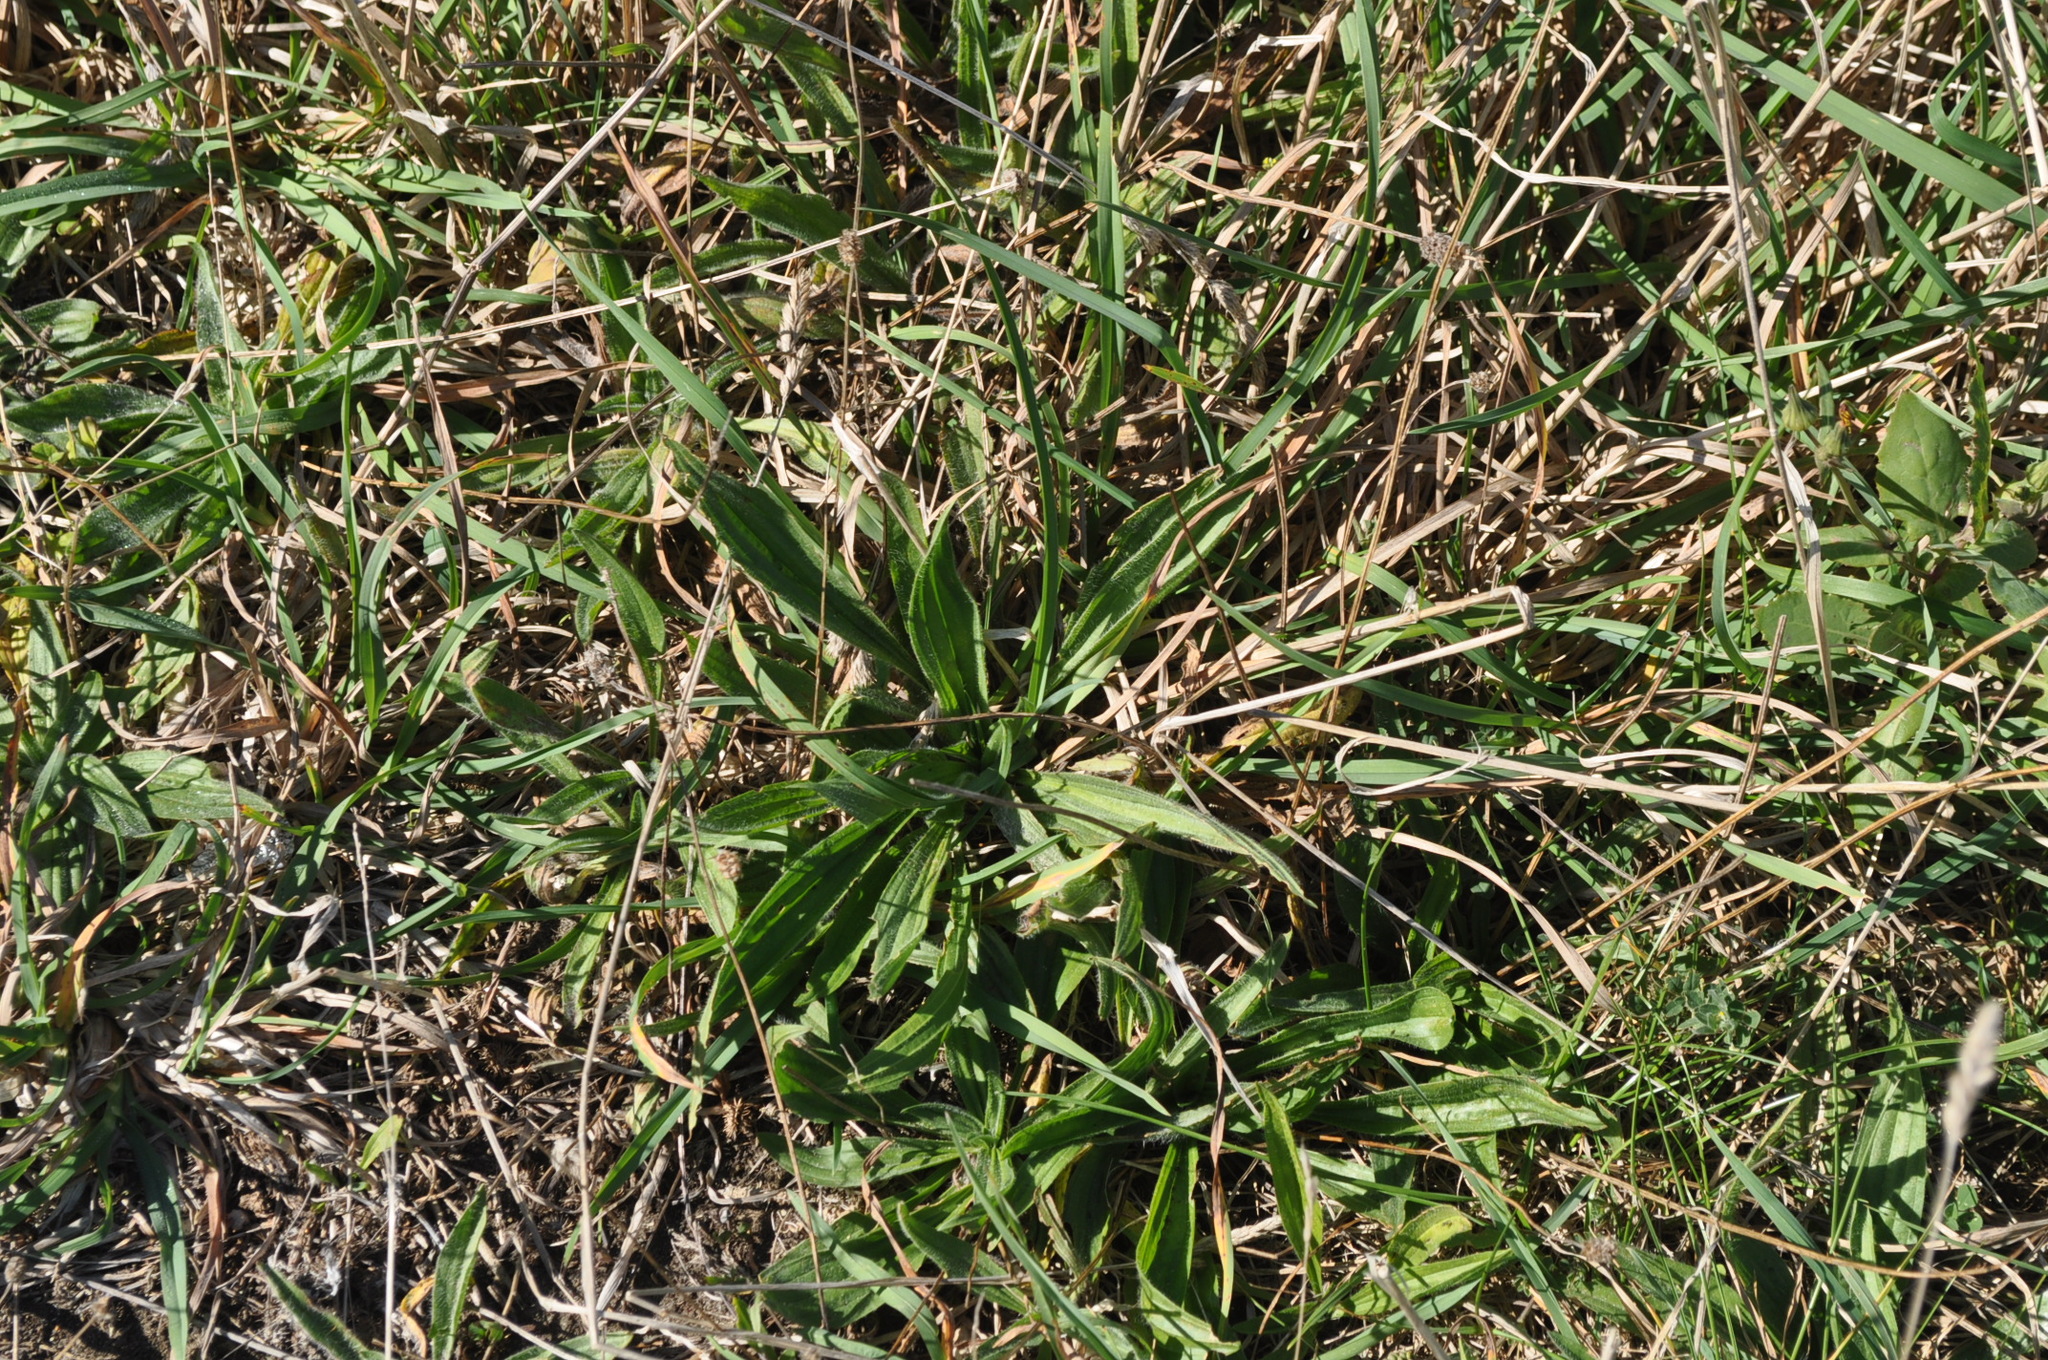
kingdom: Plantae
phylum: Tracheophyta
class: Magnoliopsida
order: Lamiales
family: Plantaginaceae
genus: Plantago
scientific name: Plantago lanceolata
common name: Ribwort plantain
